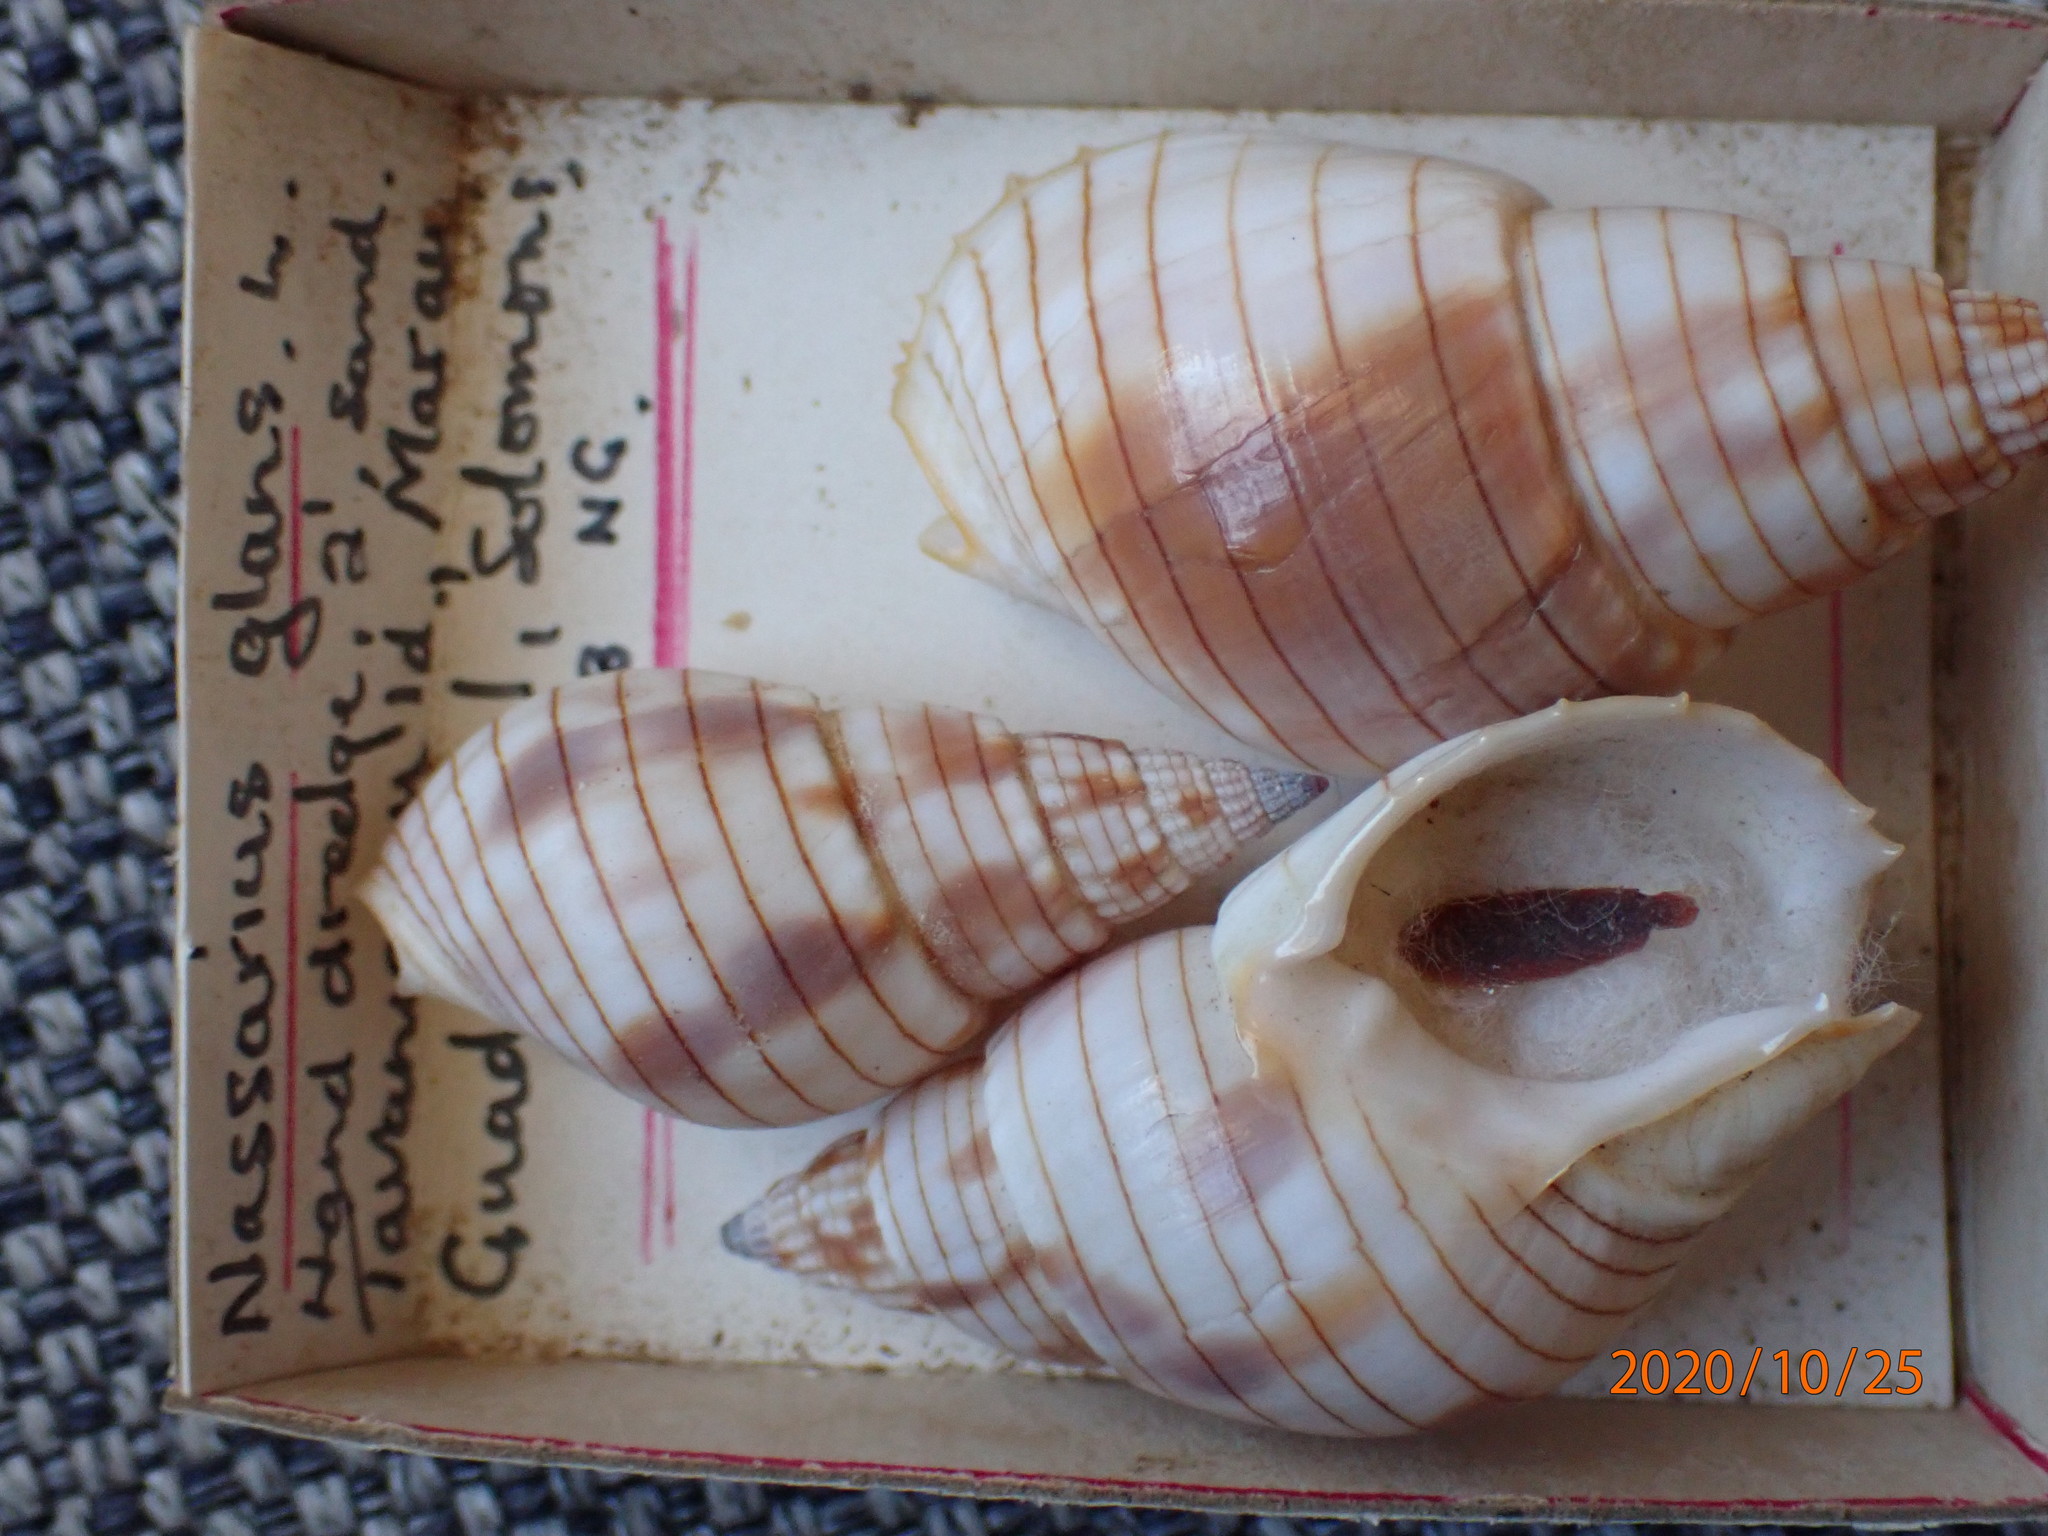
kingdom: Animalia
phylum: Mollusca
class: Gastropoda
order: Neogastropoda
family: Nassariidae
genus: Nassarius
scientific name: Nassarius glans
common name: Glans nassa
